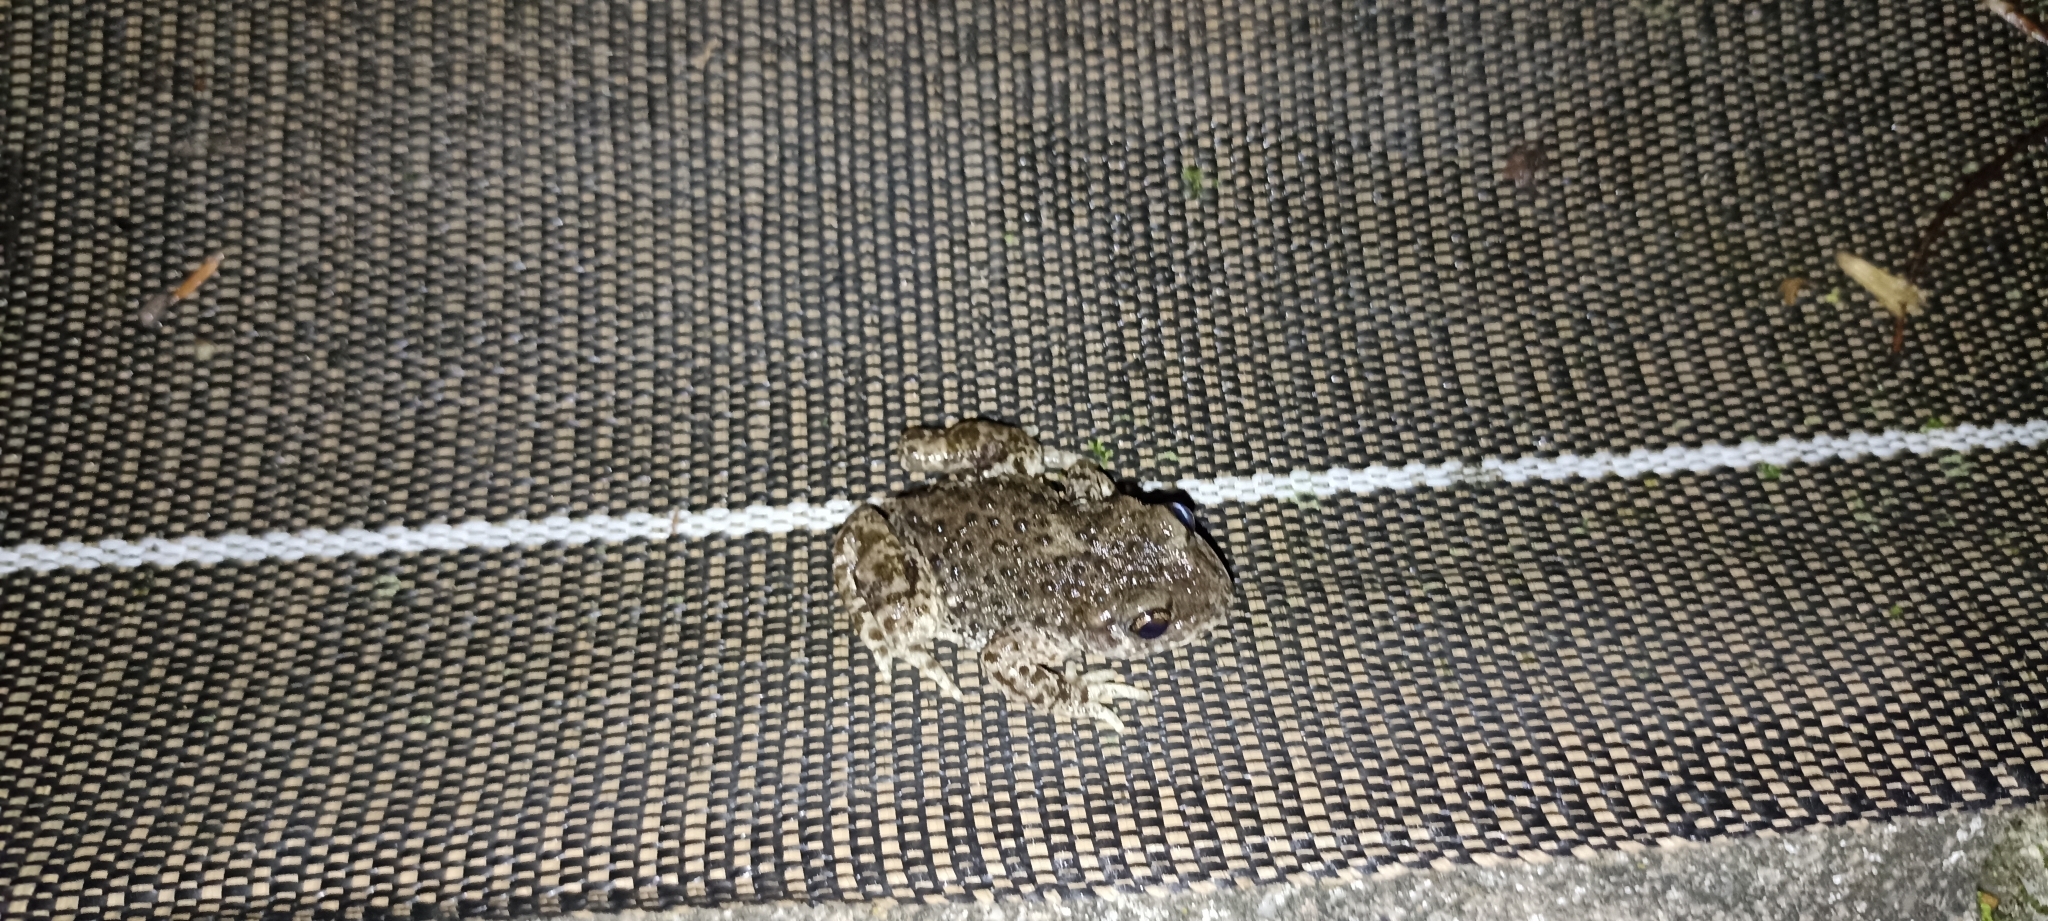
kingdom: Animalia
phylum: Chordata
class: Amphibia
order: Anura
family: Alytidae
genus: Alytes
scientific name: Alytes obstetricans
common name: Midwife toad
